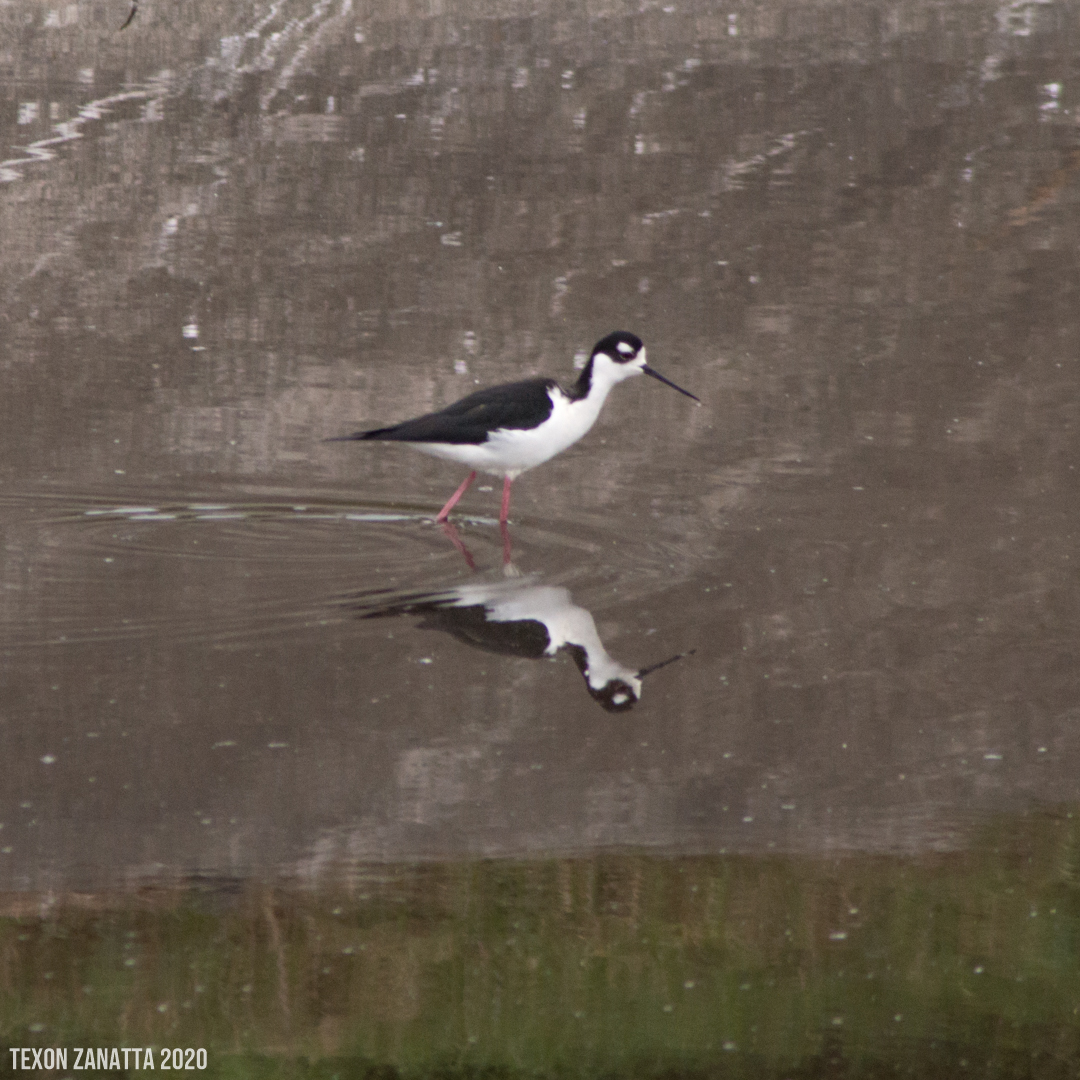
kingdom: Animalia
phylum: Chordata
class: Aves
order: Charadriiformes
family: Recurvirostridae
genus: Himantopus
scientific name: Himantopus mexicanus
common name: Black-necked stilt
